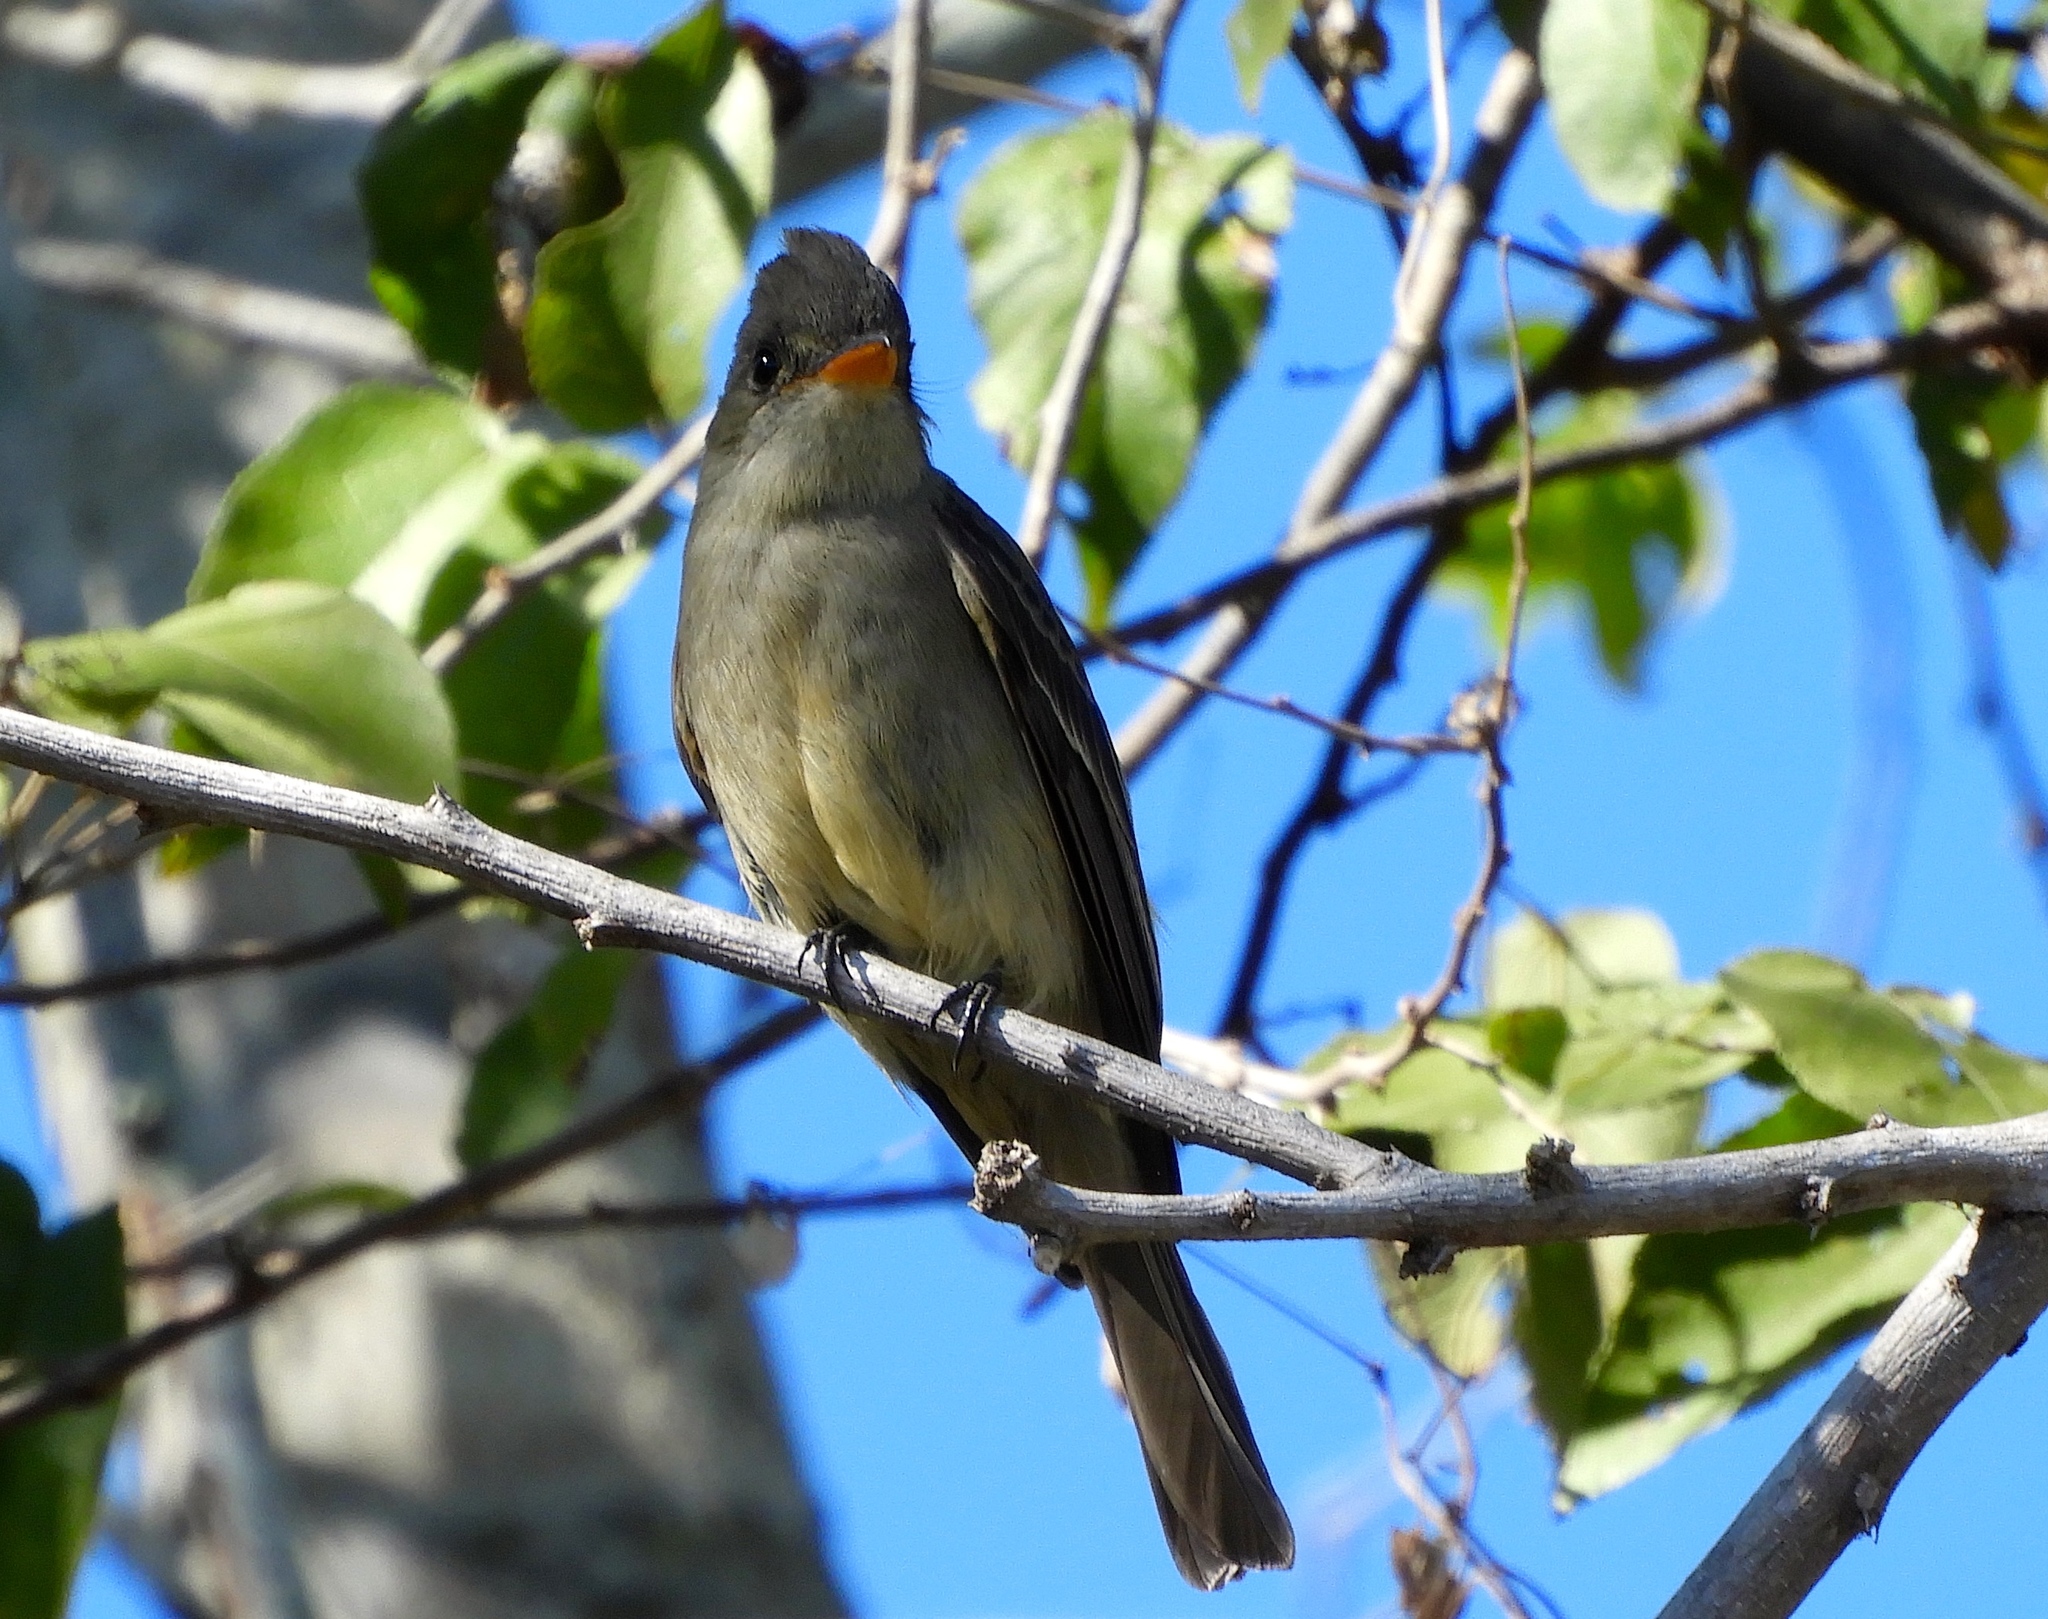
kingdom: Animalia
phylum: Chordata
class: Aves
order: Passeriformes
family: Tyrannidae
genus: Contopus
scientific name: Contopus pertinax
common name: Greater pewee
